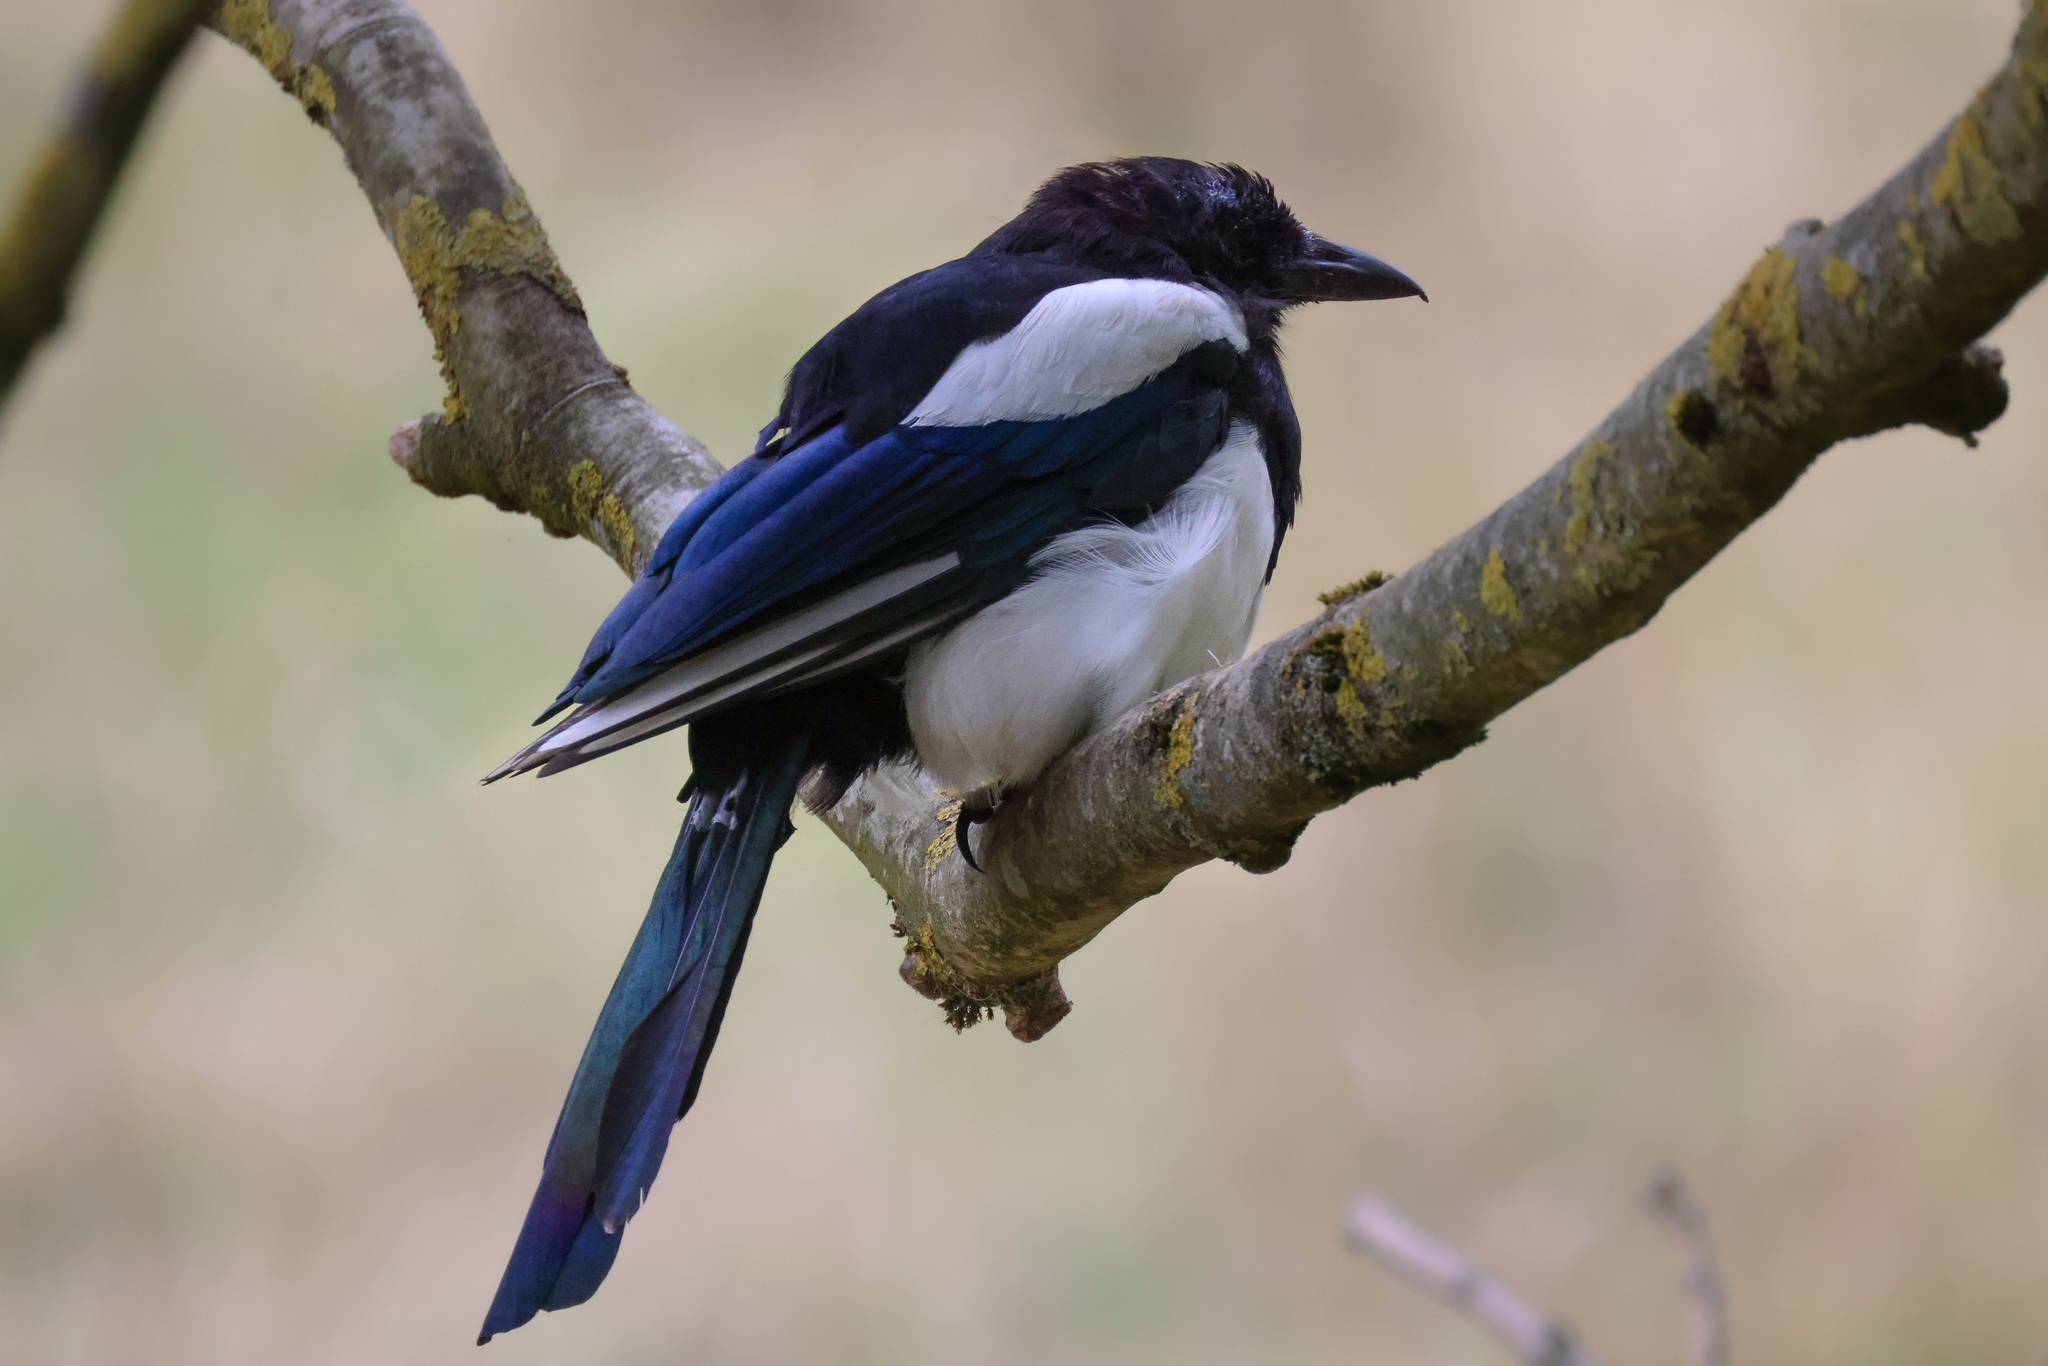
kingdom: Animalia
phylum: Chordata
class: Aves
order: Passeriformes
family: Corvidae
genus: Pica
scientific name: Pica pica
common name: Eurasian magpie
